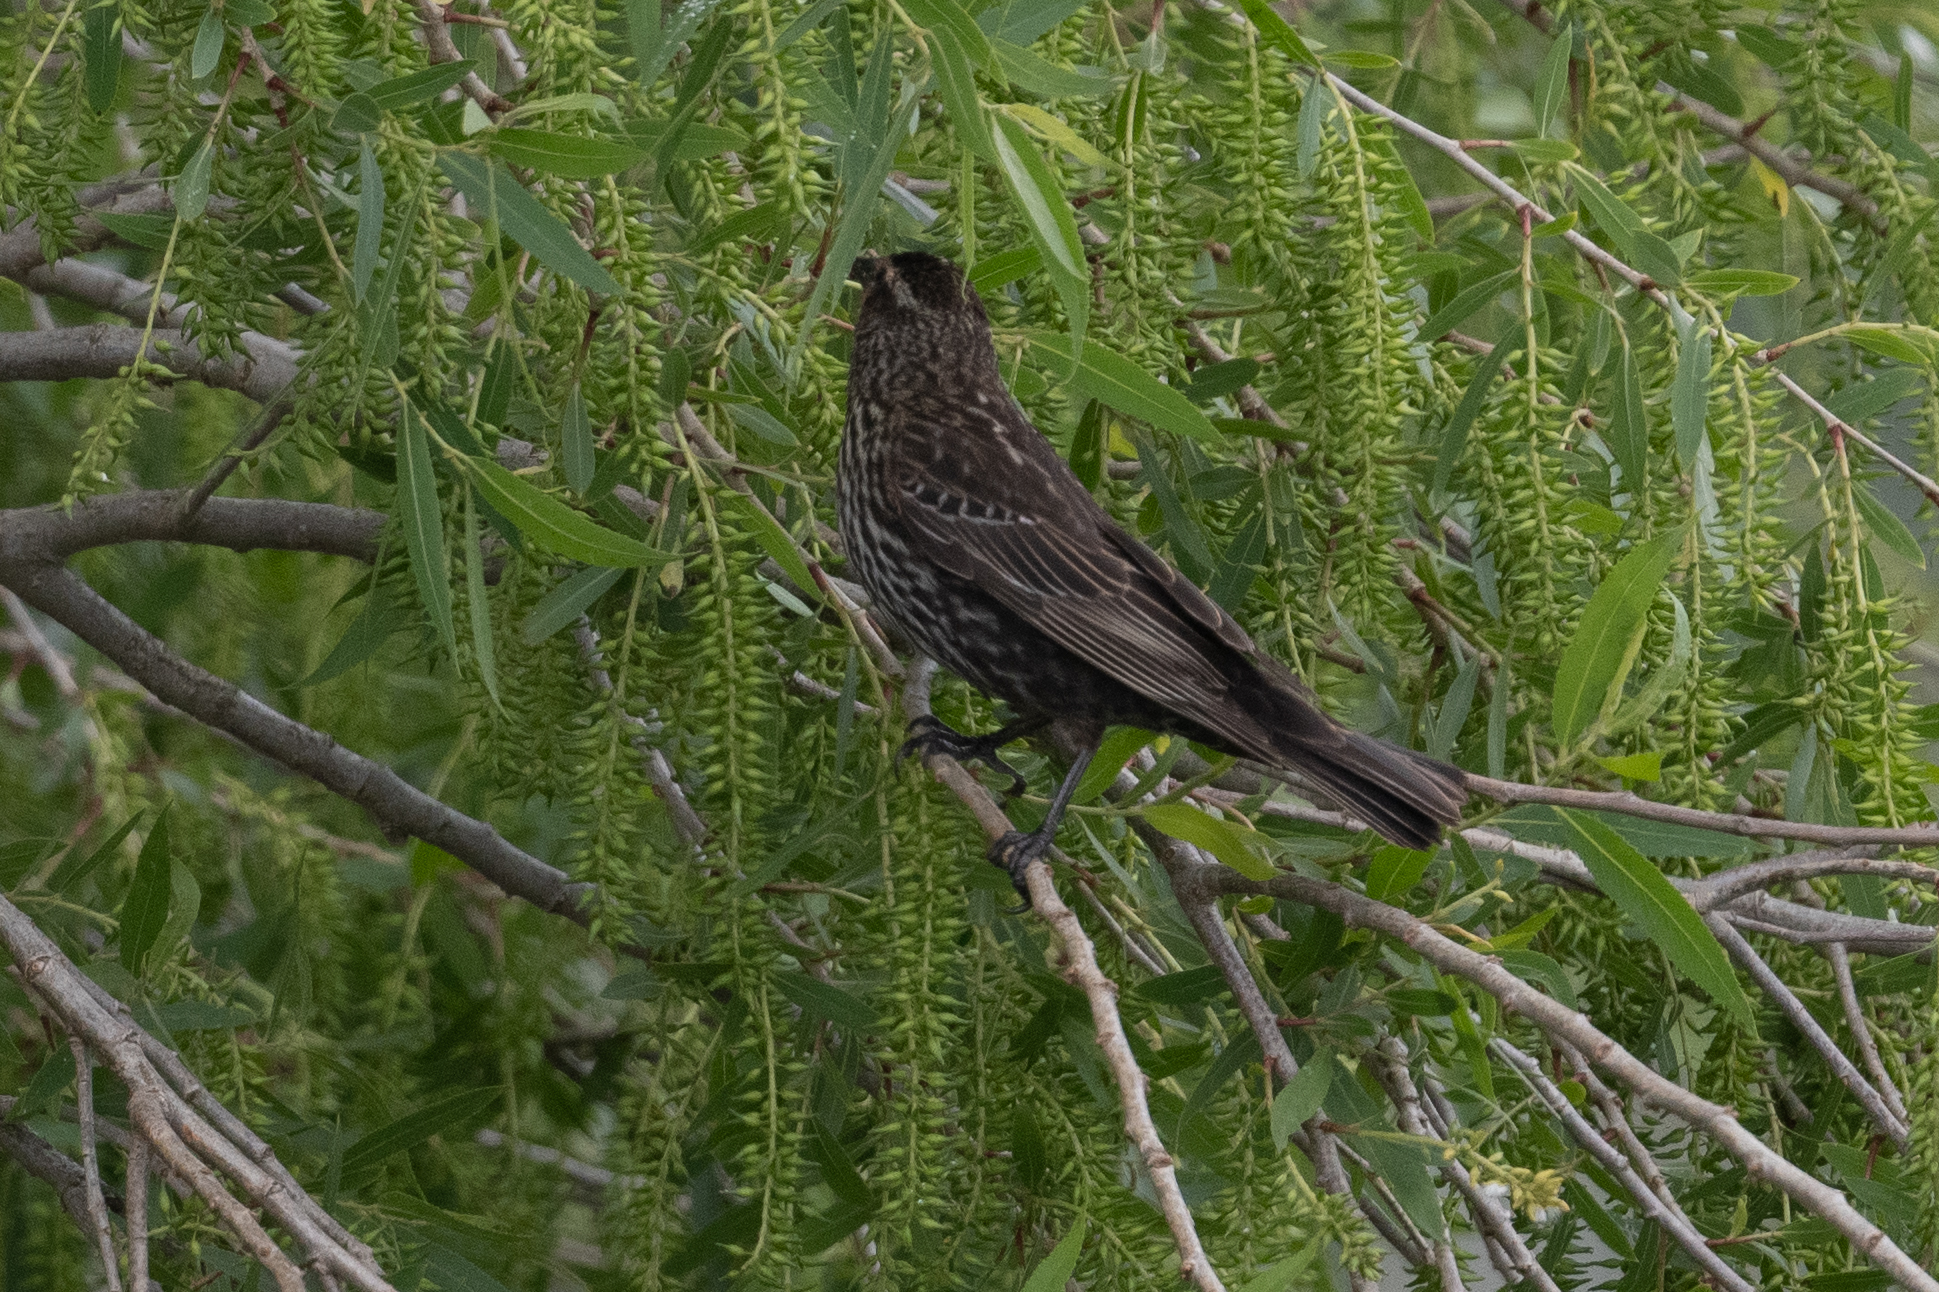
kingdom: Animalia
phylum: Chordata
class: Aves
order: Passeriformes
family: Icteridae
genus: Agelaius
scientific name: Agelaius phoeniceus
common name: Red-winged blackbird
